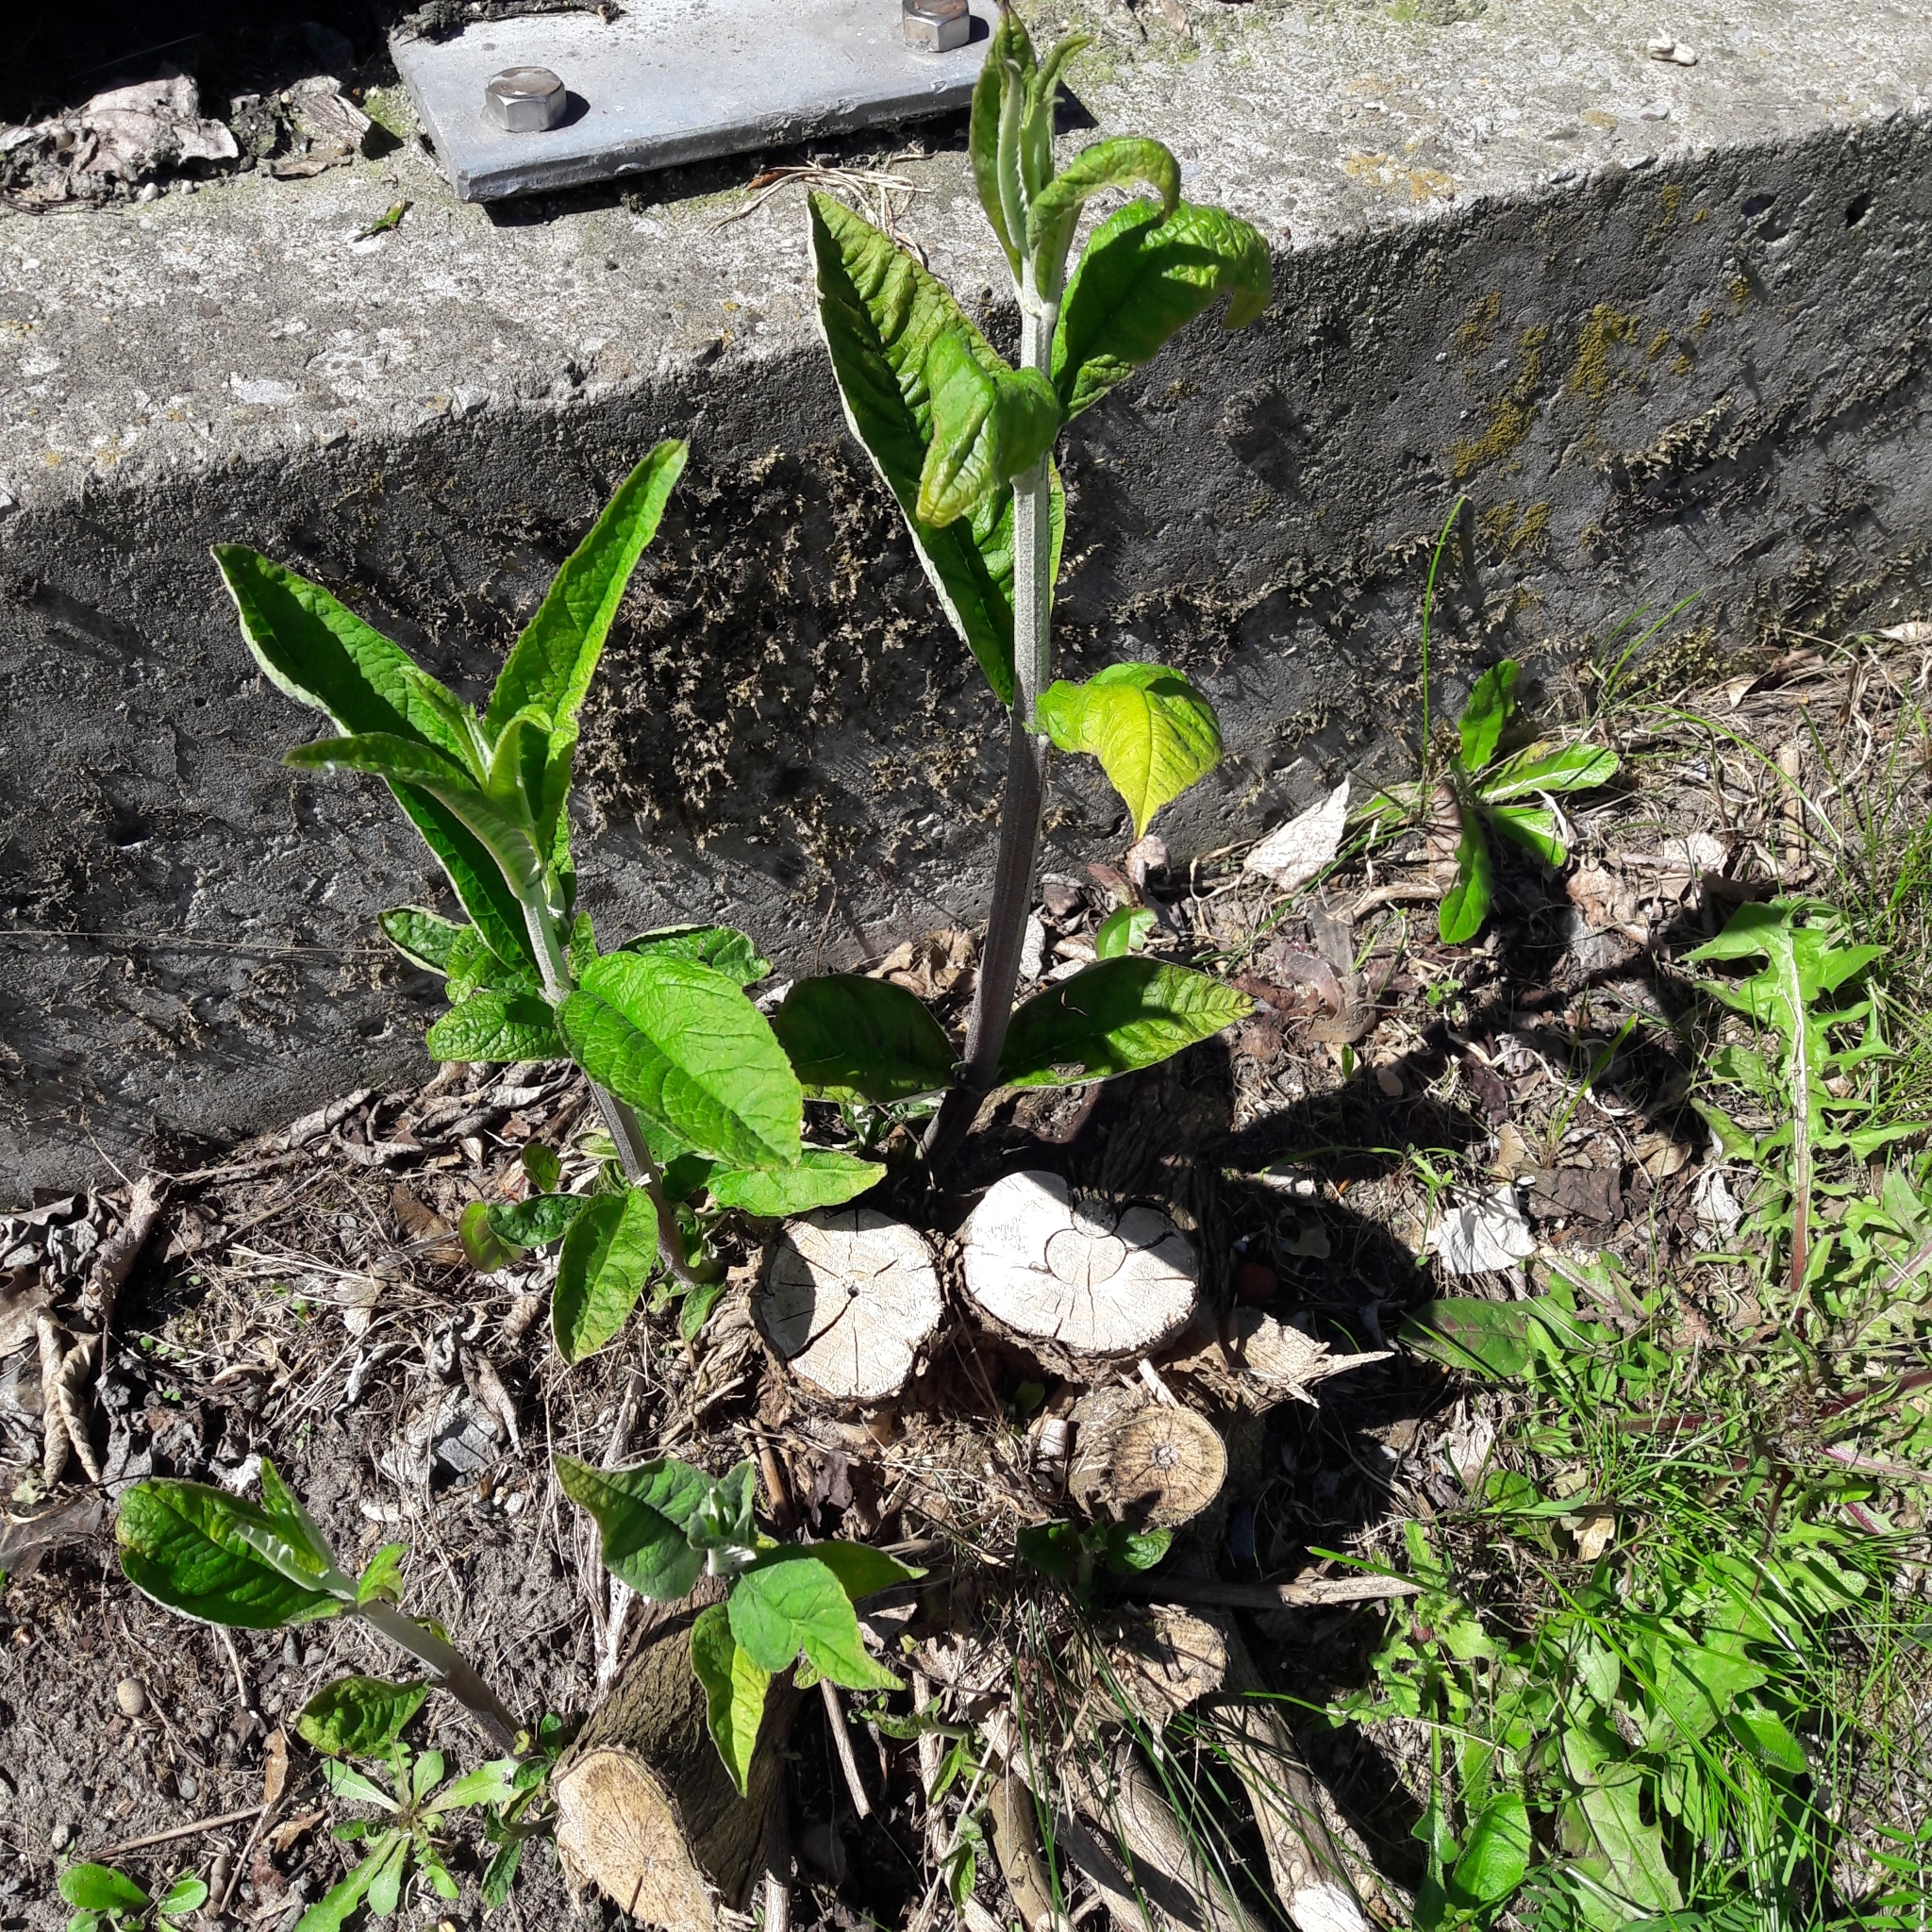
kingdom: Plantae
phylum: Tracheophyta
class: Magnoliopsida
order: Lamiales
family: Scrophulariaceae
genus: Buddleja
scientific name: Buddleja davidii
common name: Butterfly-bush
